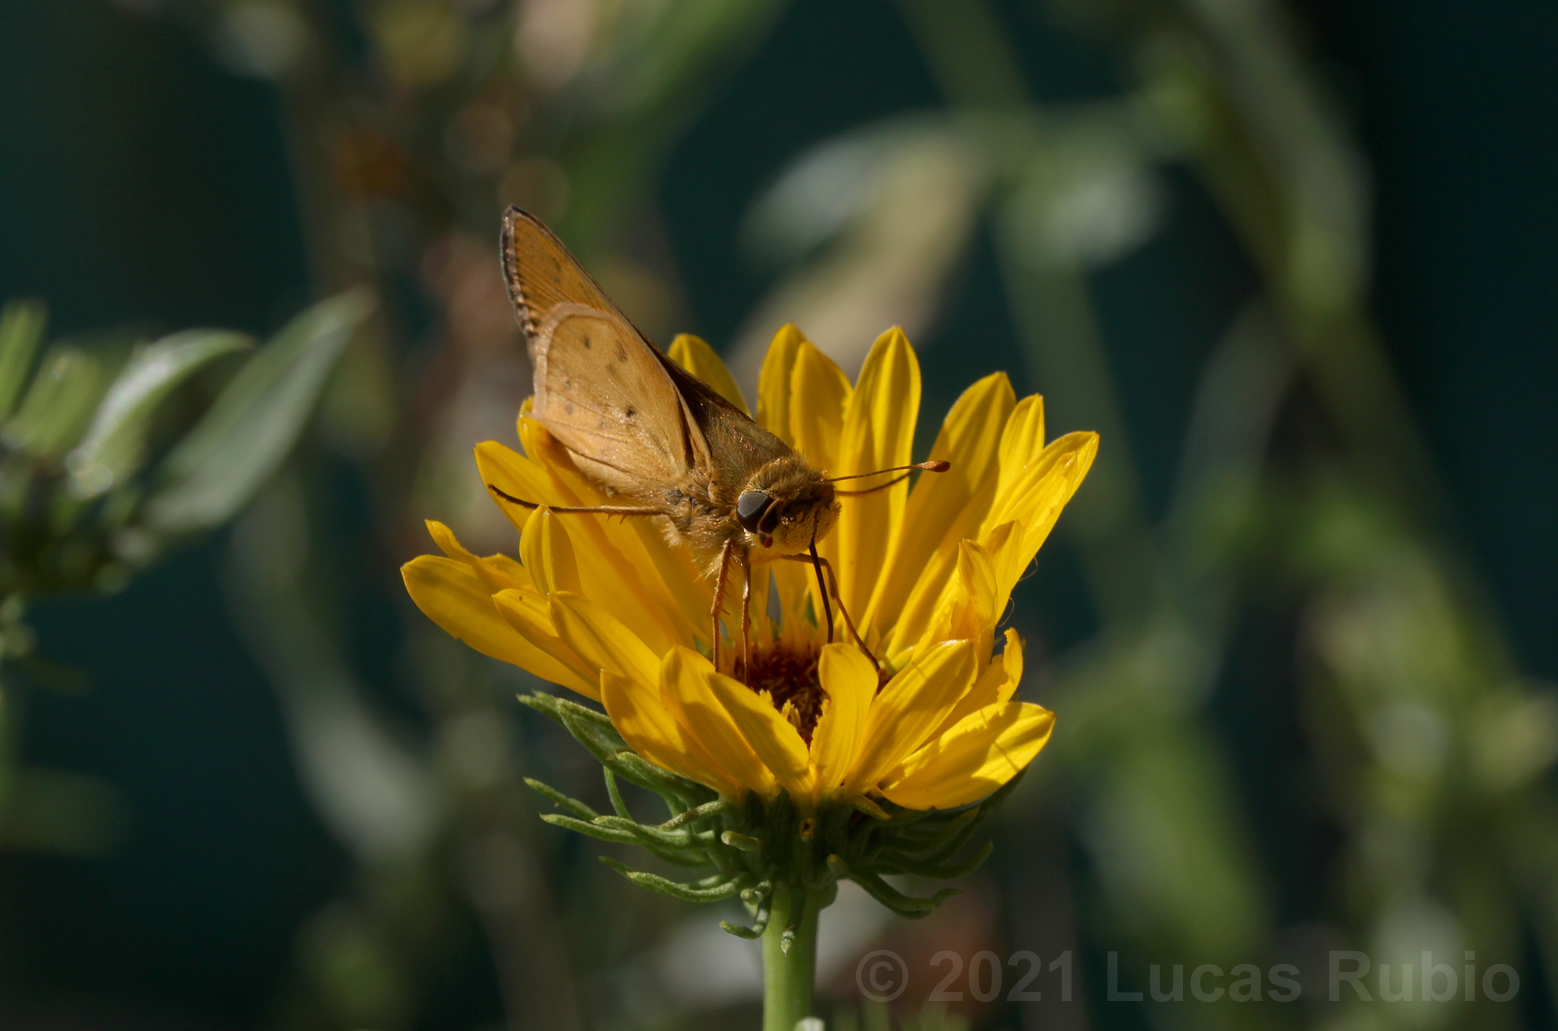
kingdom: Animalia
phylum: Arthropoda
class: Insecta
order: Lepidoptera
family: Hesperiidae
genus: Hylephila
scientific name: Hylephila phyleus
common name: Fiery skipper
